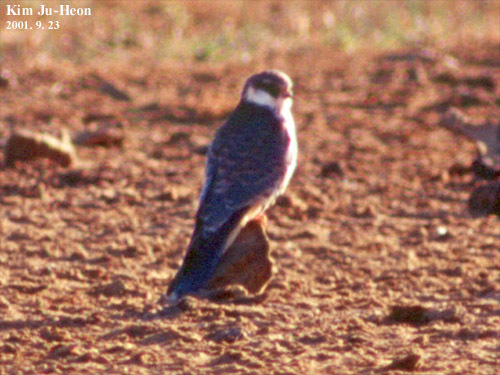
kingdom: Animalia
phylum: Chordata
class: Aves
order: Falconiformes
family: Falconidae
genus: Falco
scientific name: Falco amurensis
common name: Amur falcon
